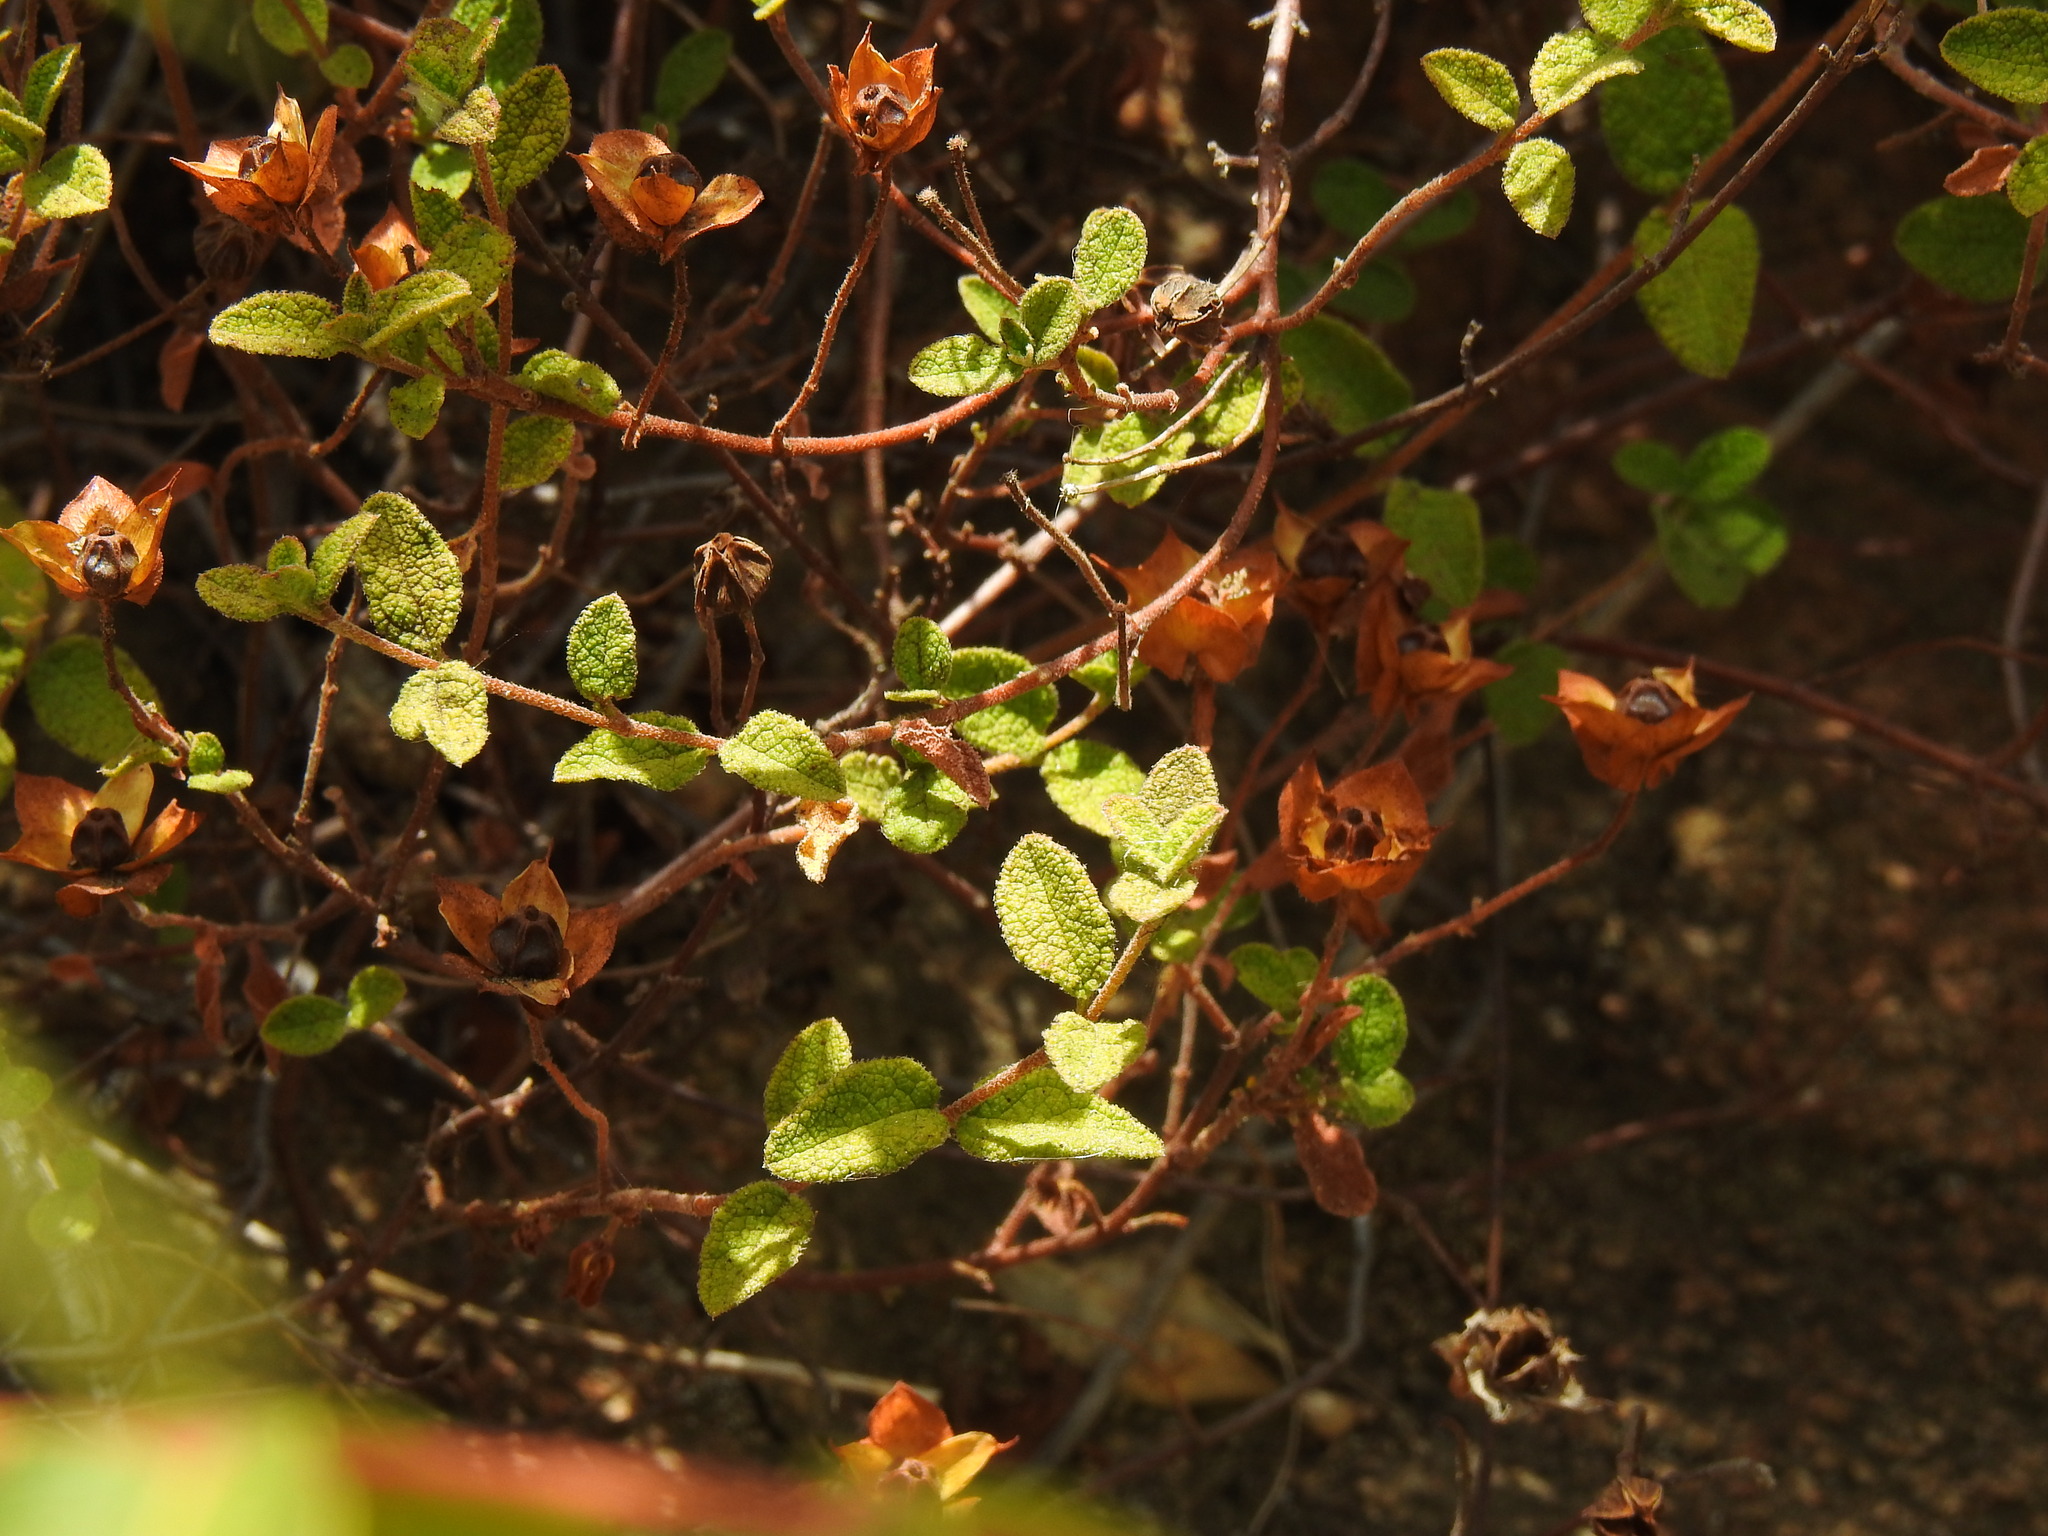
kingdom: Plantae
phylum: Tracheophyta
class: Magnoliopsida
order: Malvales
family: Cistaceae
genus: Cistus
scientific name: Cistus salviifolius
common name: Salvia cistus
